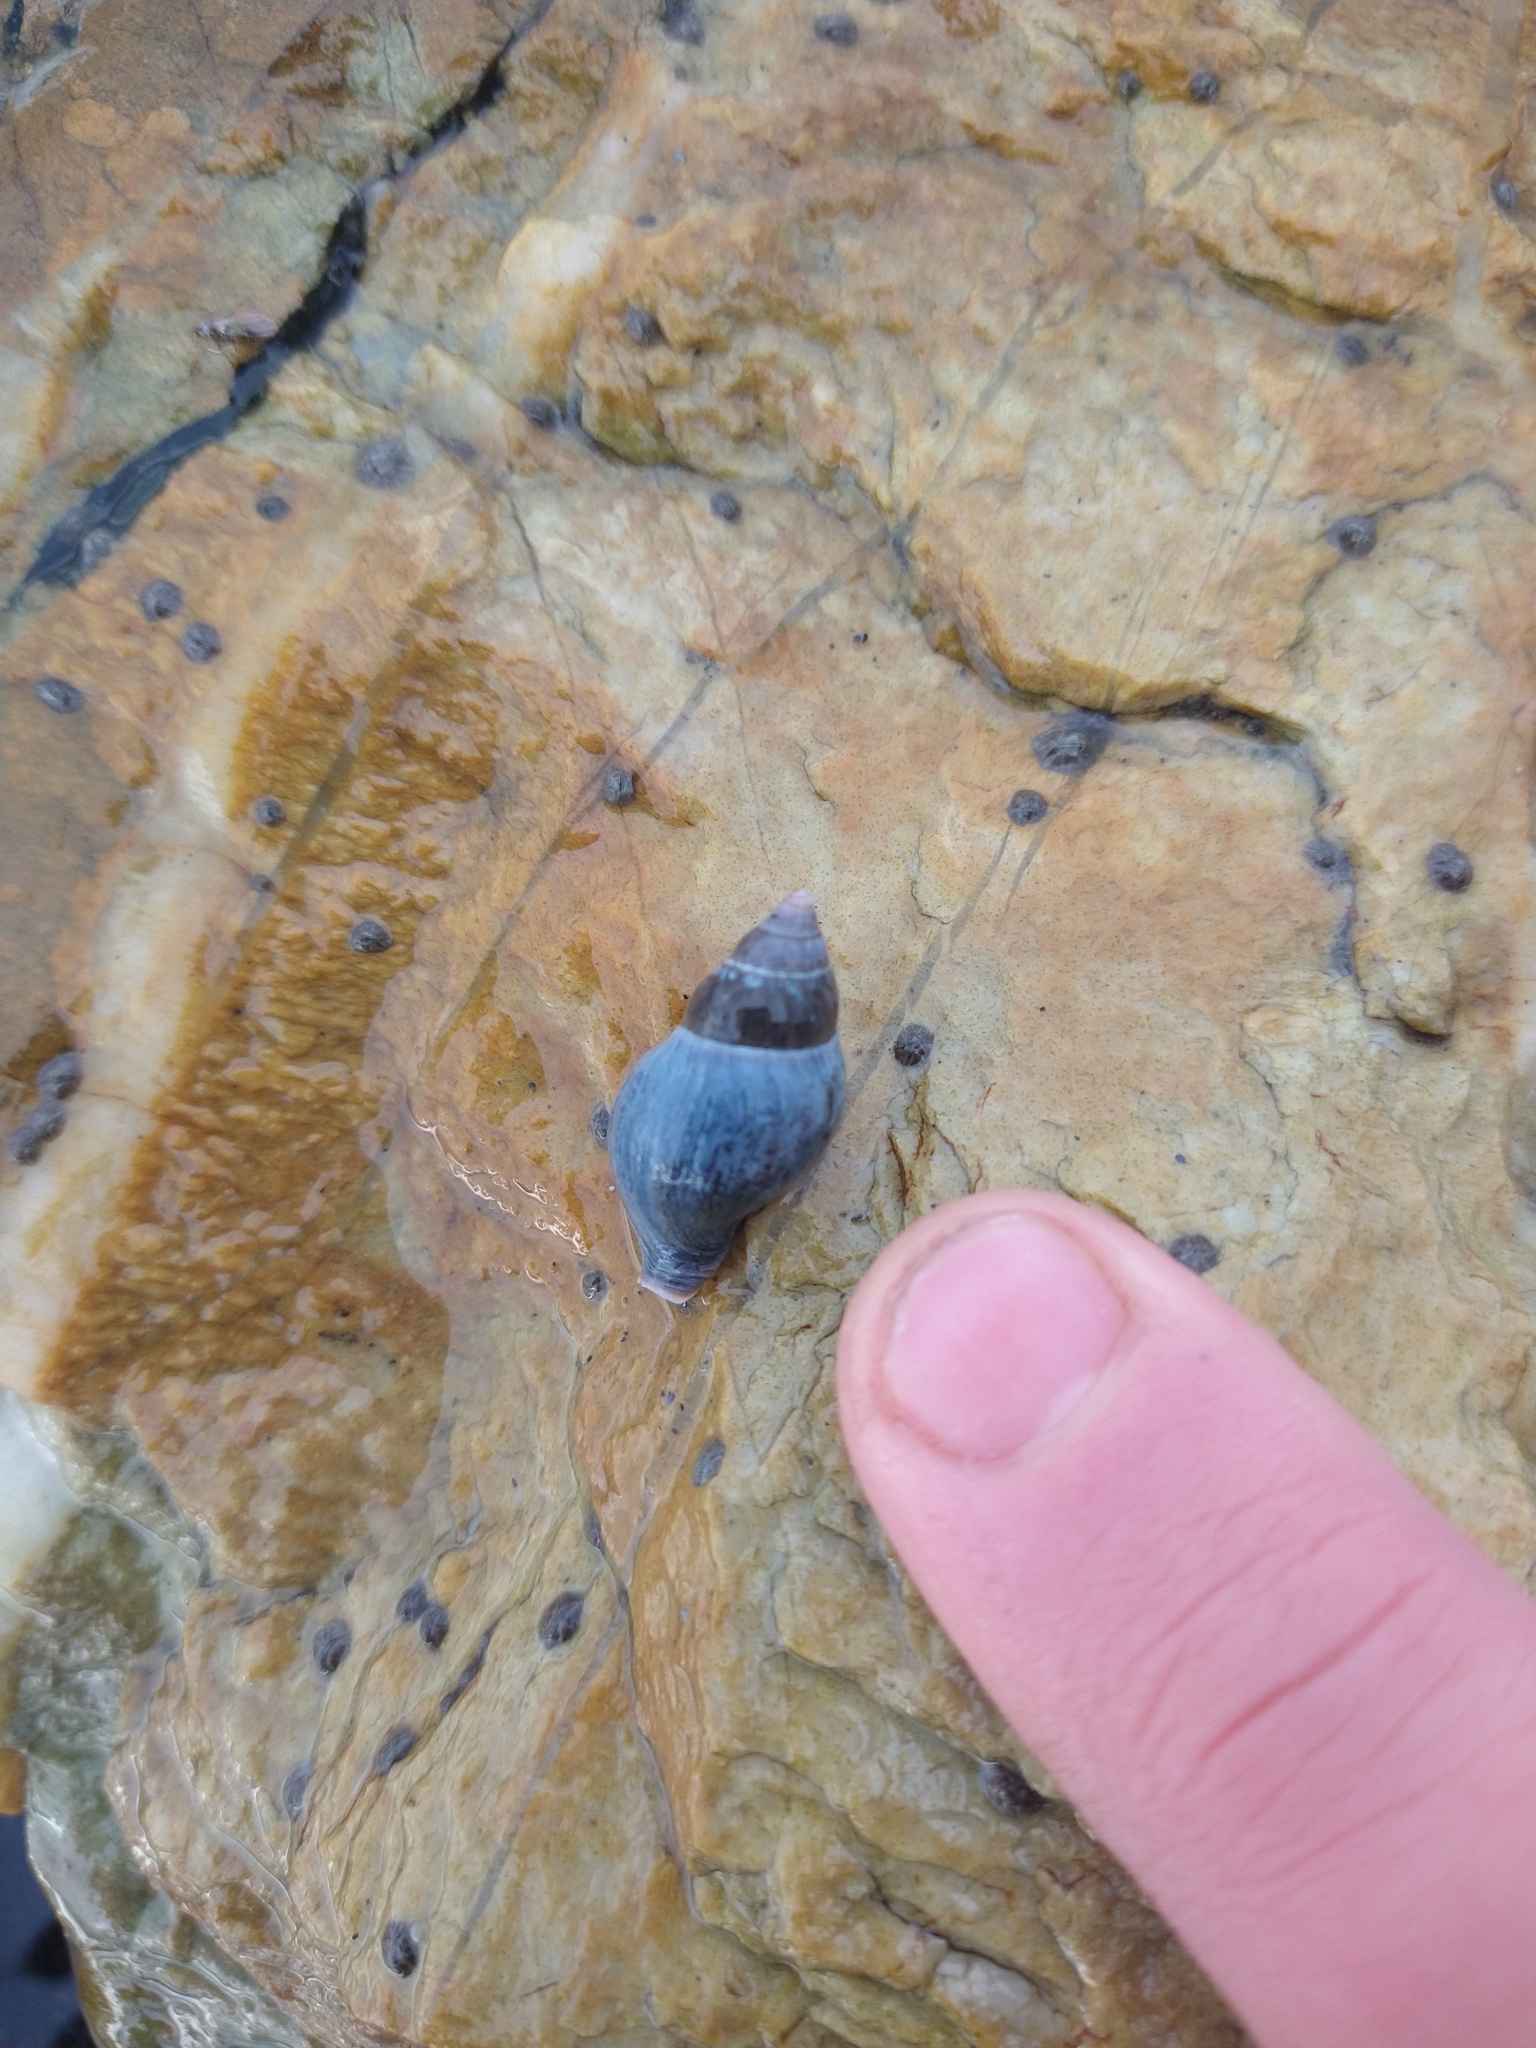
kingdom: Animalia
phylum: Mollusca
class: Gastropoda
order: Neogastropoda
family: Cominellidae
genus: Pareuthria
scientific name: Pareuthria fuscata
